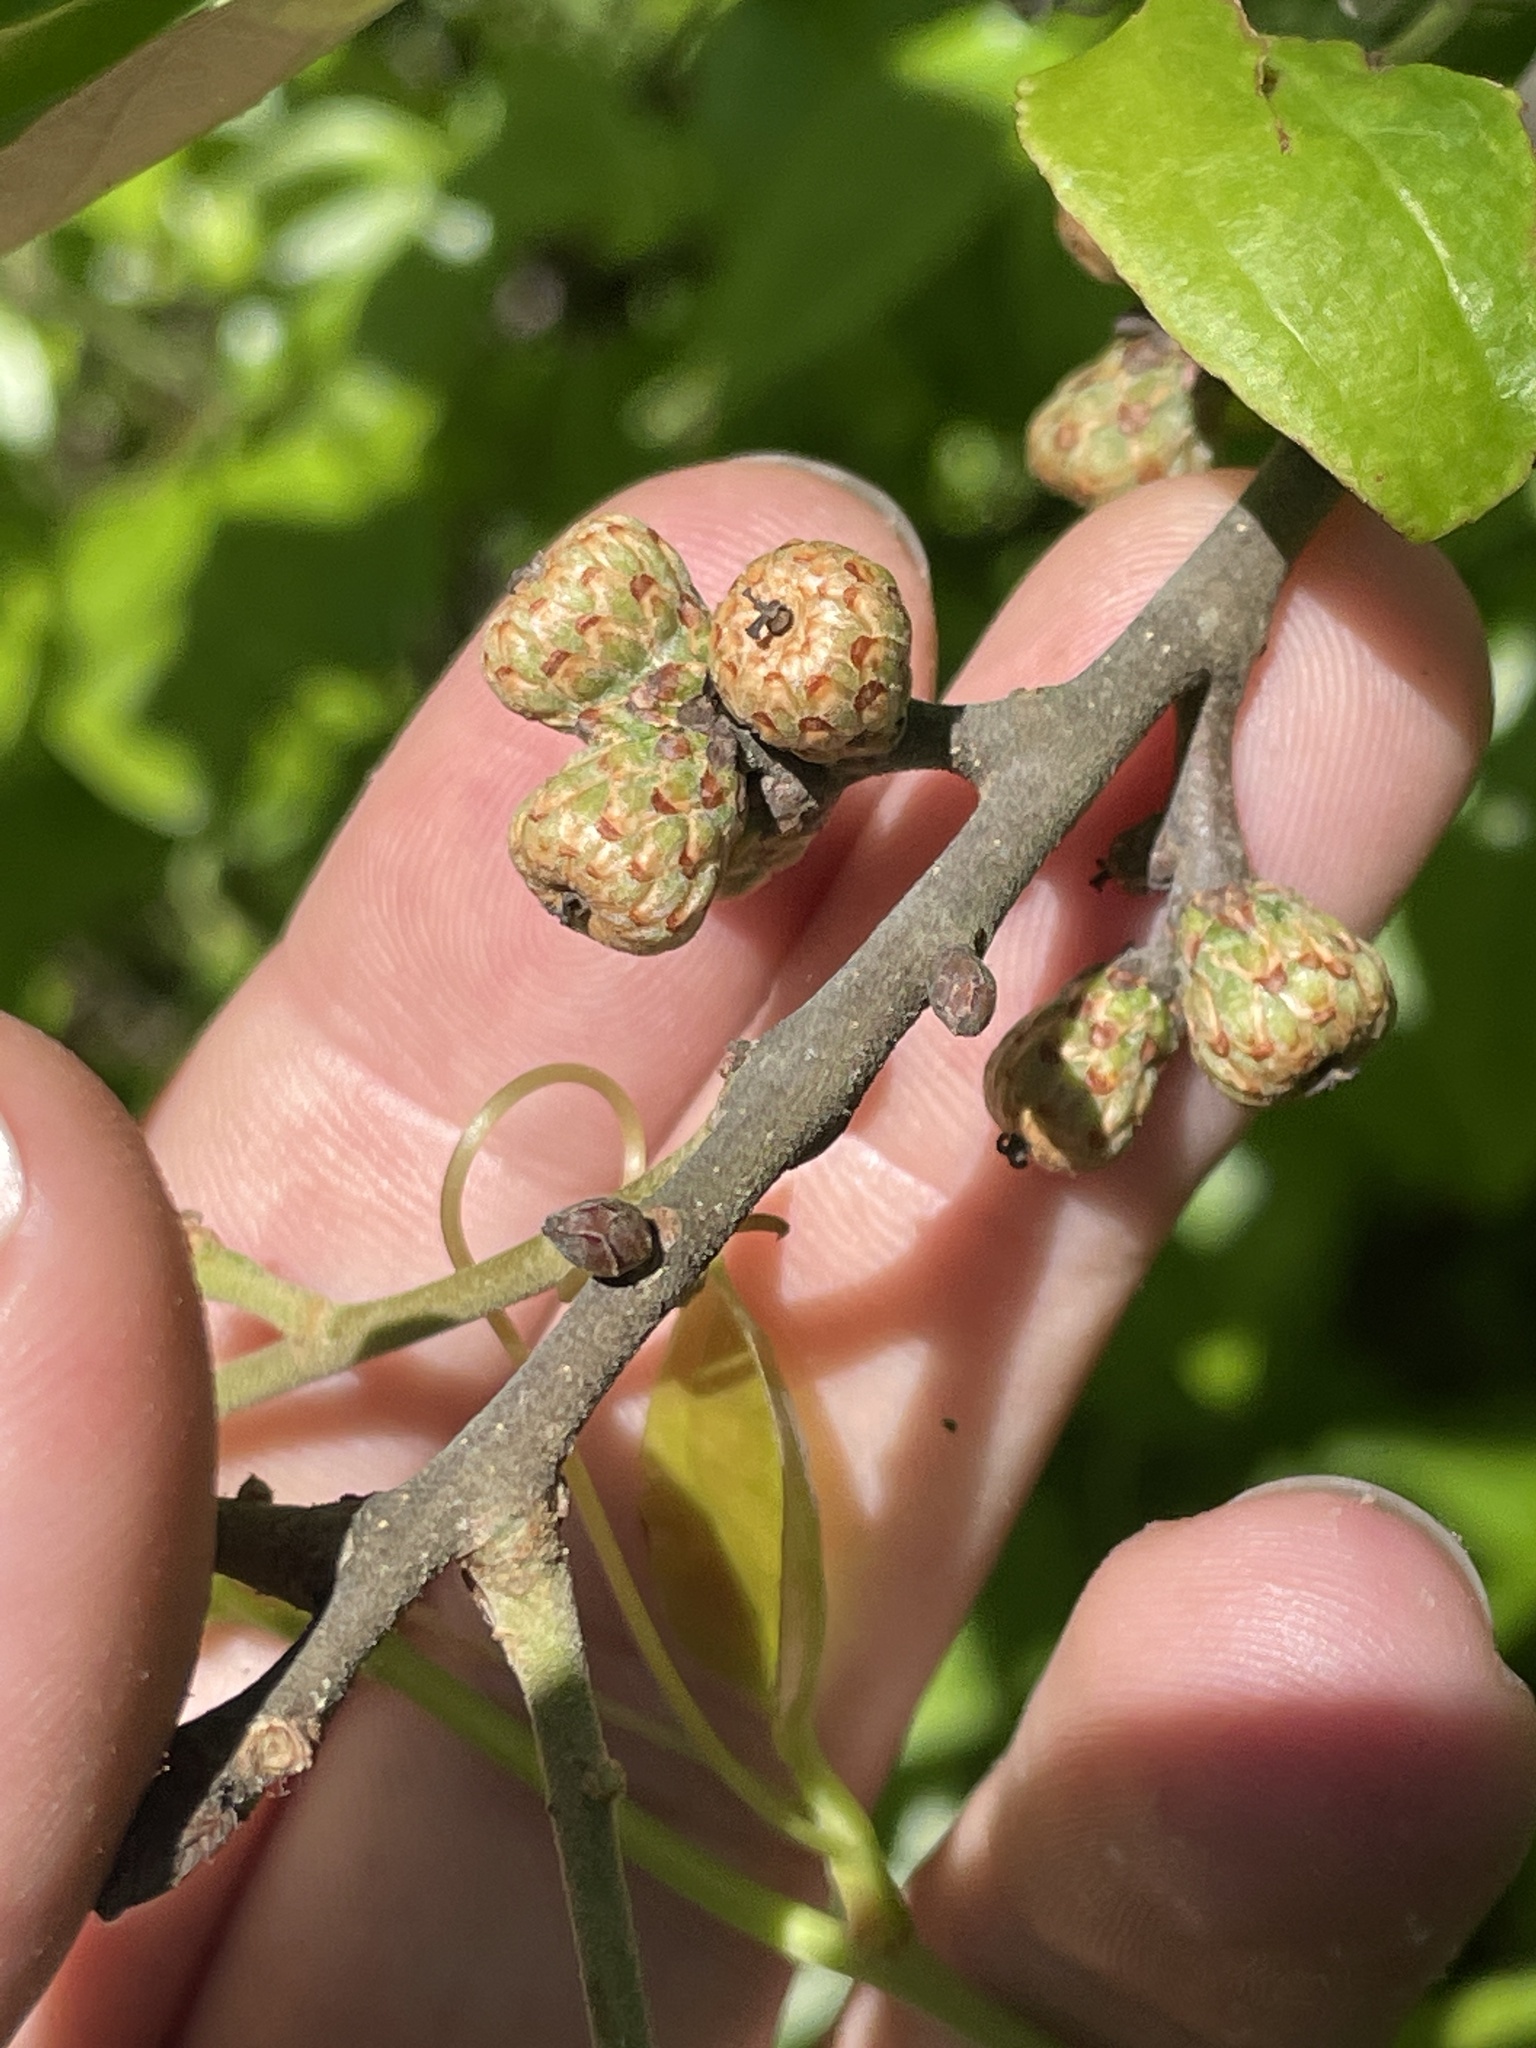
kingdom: Plantae
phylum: Tracheophyta
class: Magnoliopsida
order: Fagales
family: Fagaceae
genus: Quercus
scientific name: Quercus ilicifolia
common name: Bear oak
